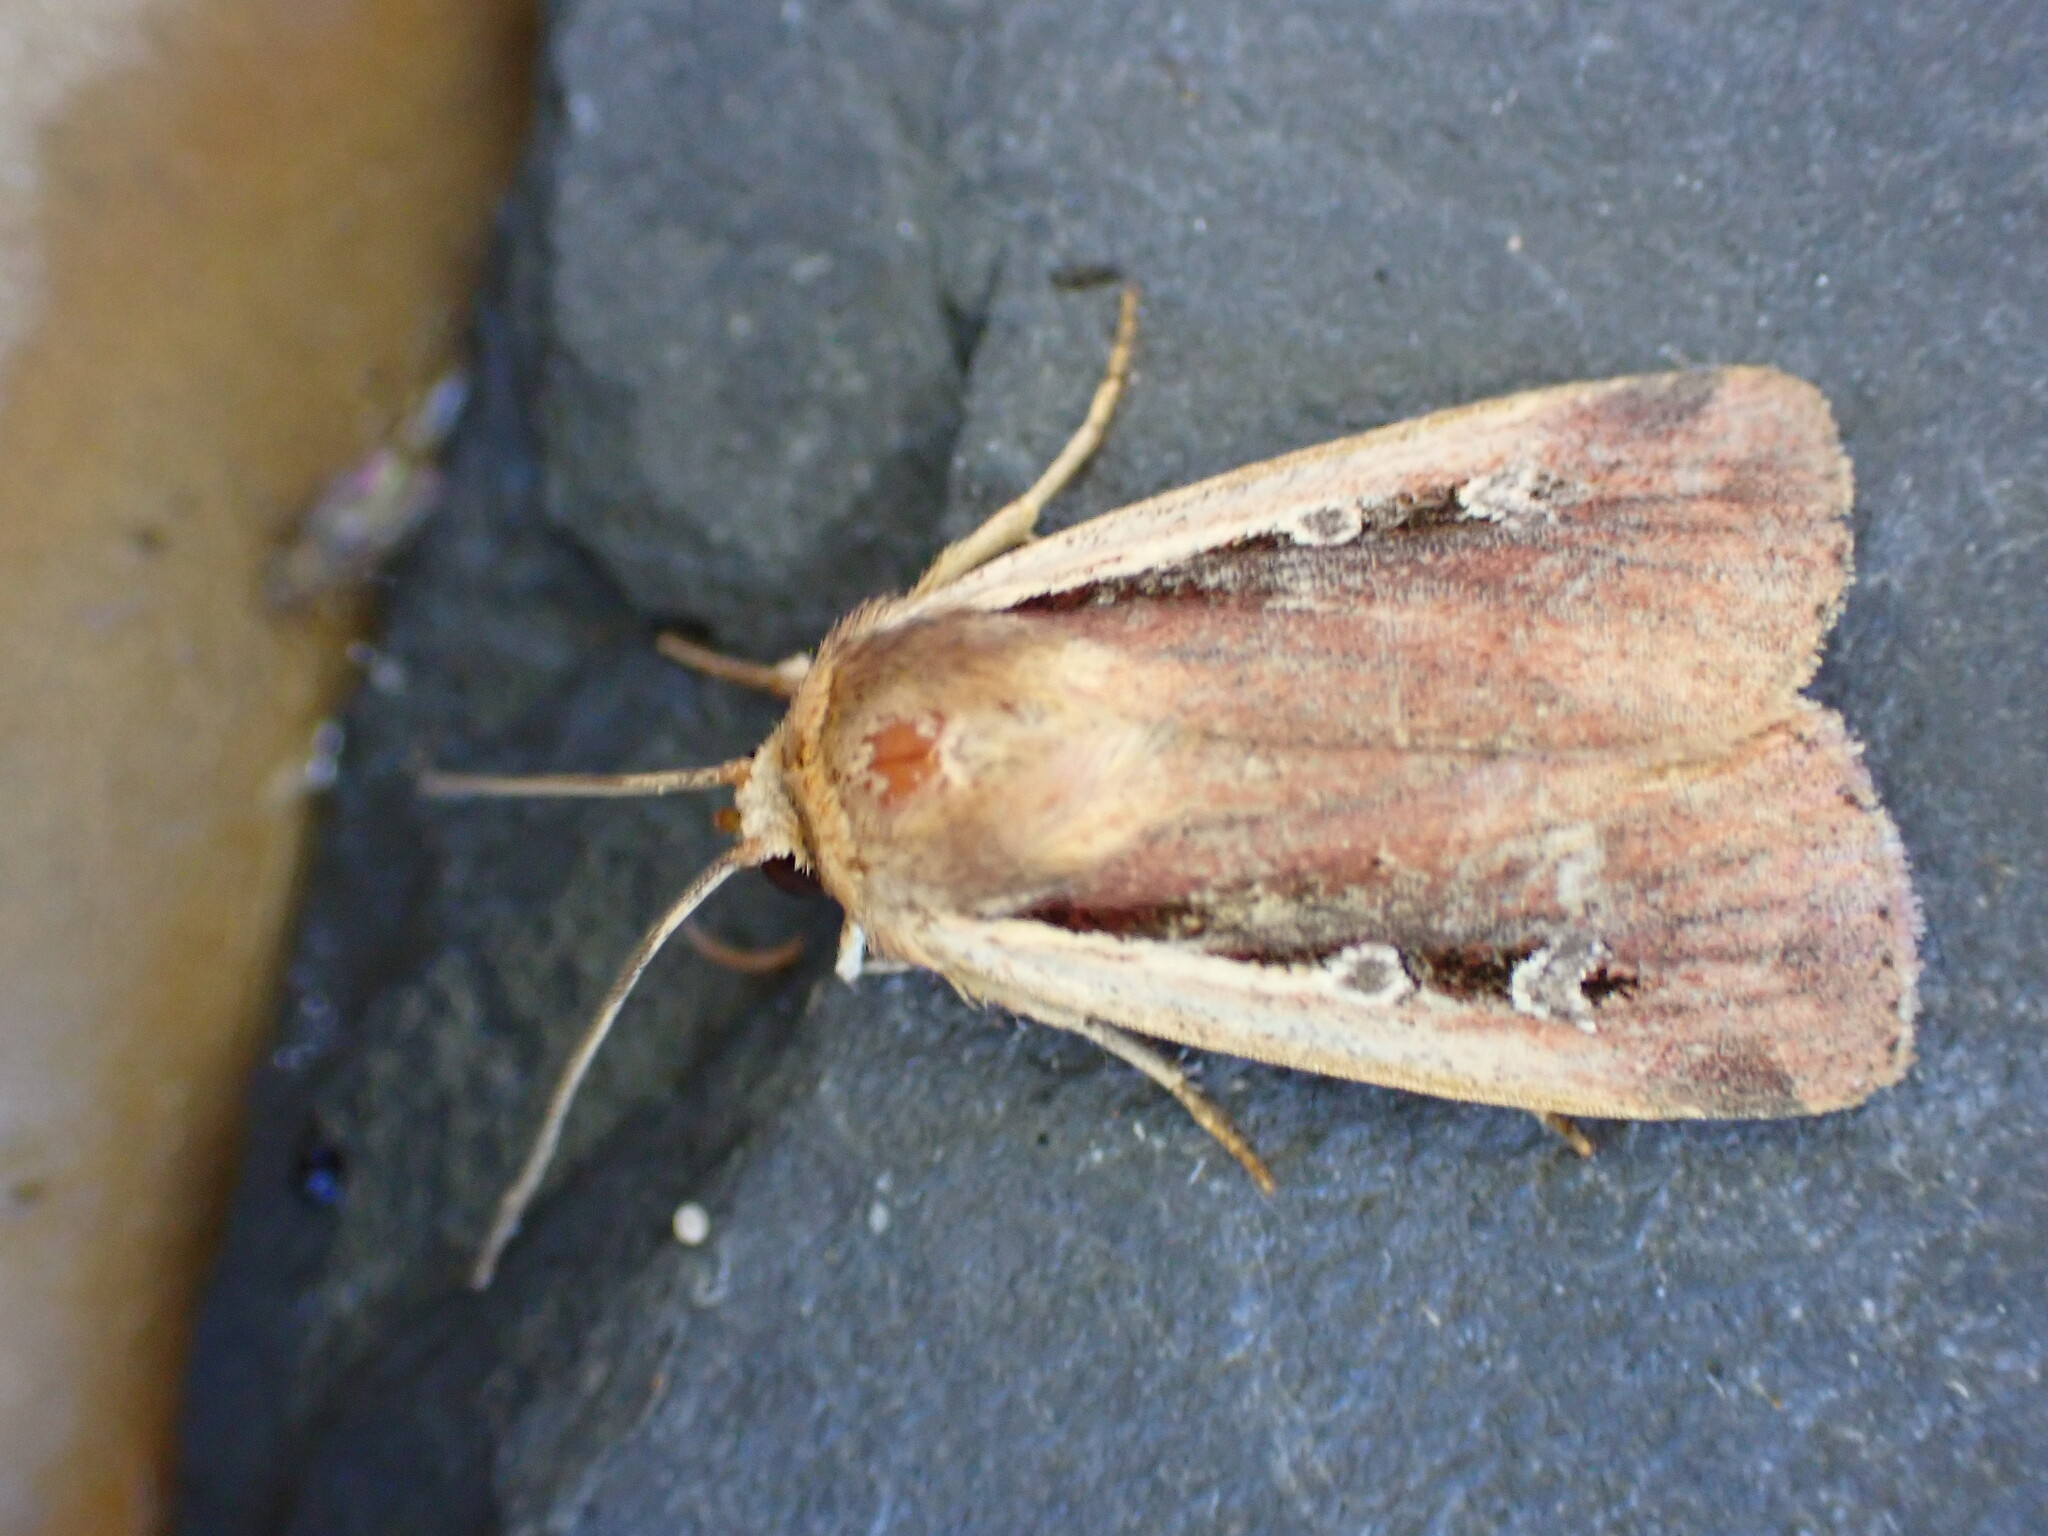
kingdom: Animalia
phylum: Arthropoda
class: Insecta
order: Lepidoptera
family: Noctuidae
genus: Ochropleura
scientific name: Ochropleura plecta
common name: Flame shoulder
